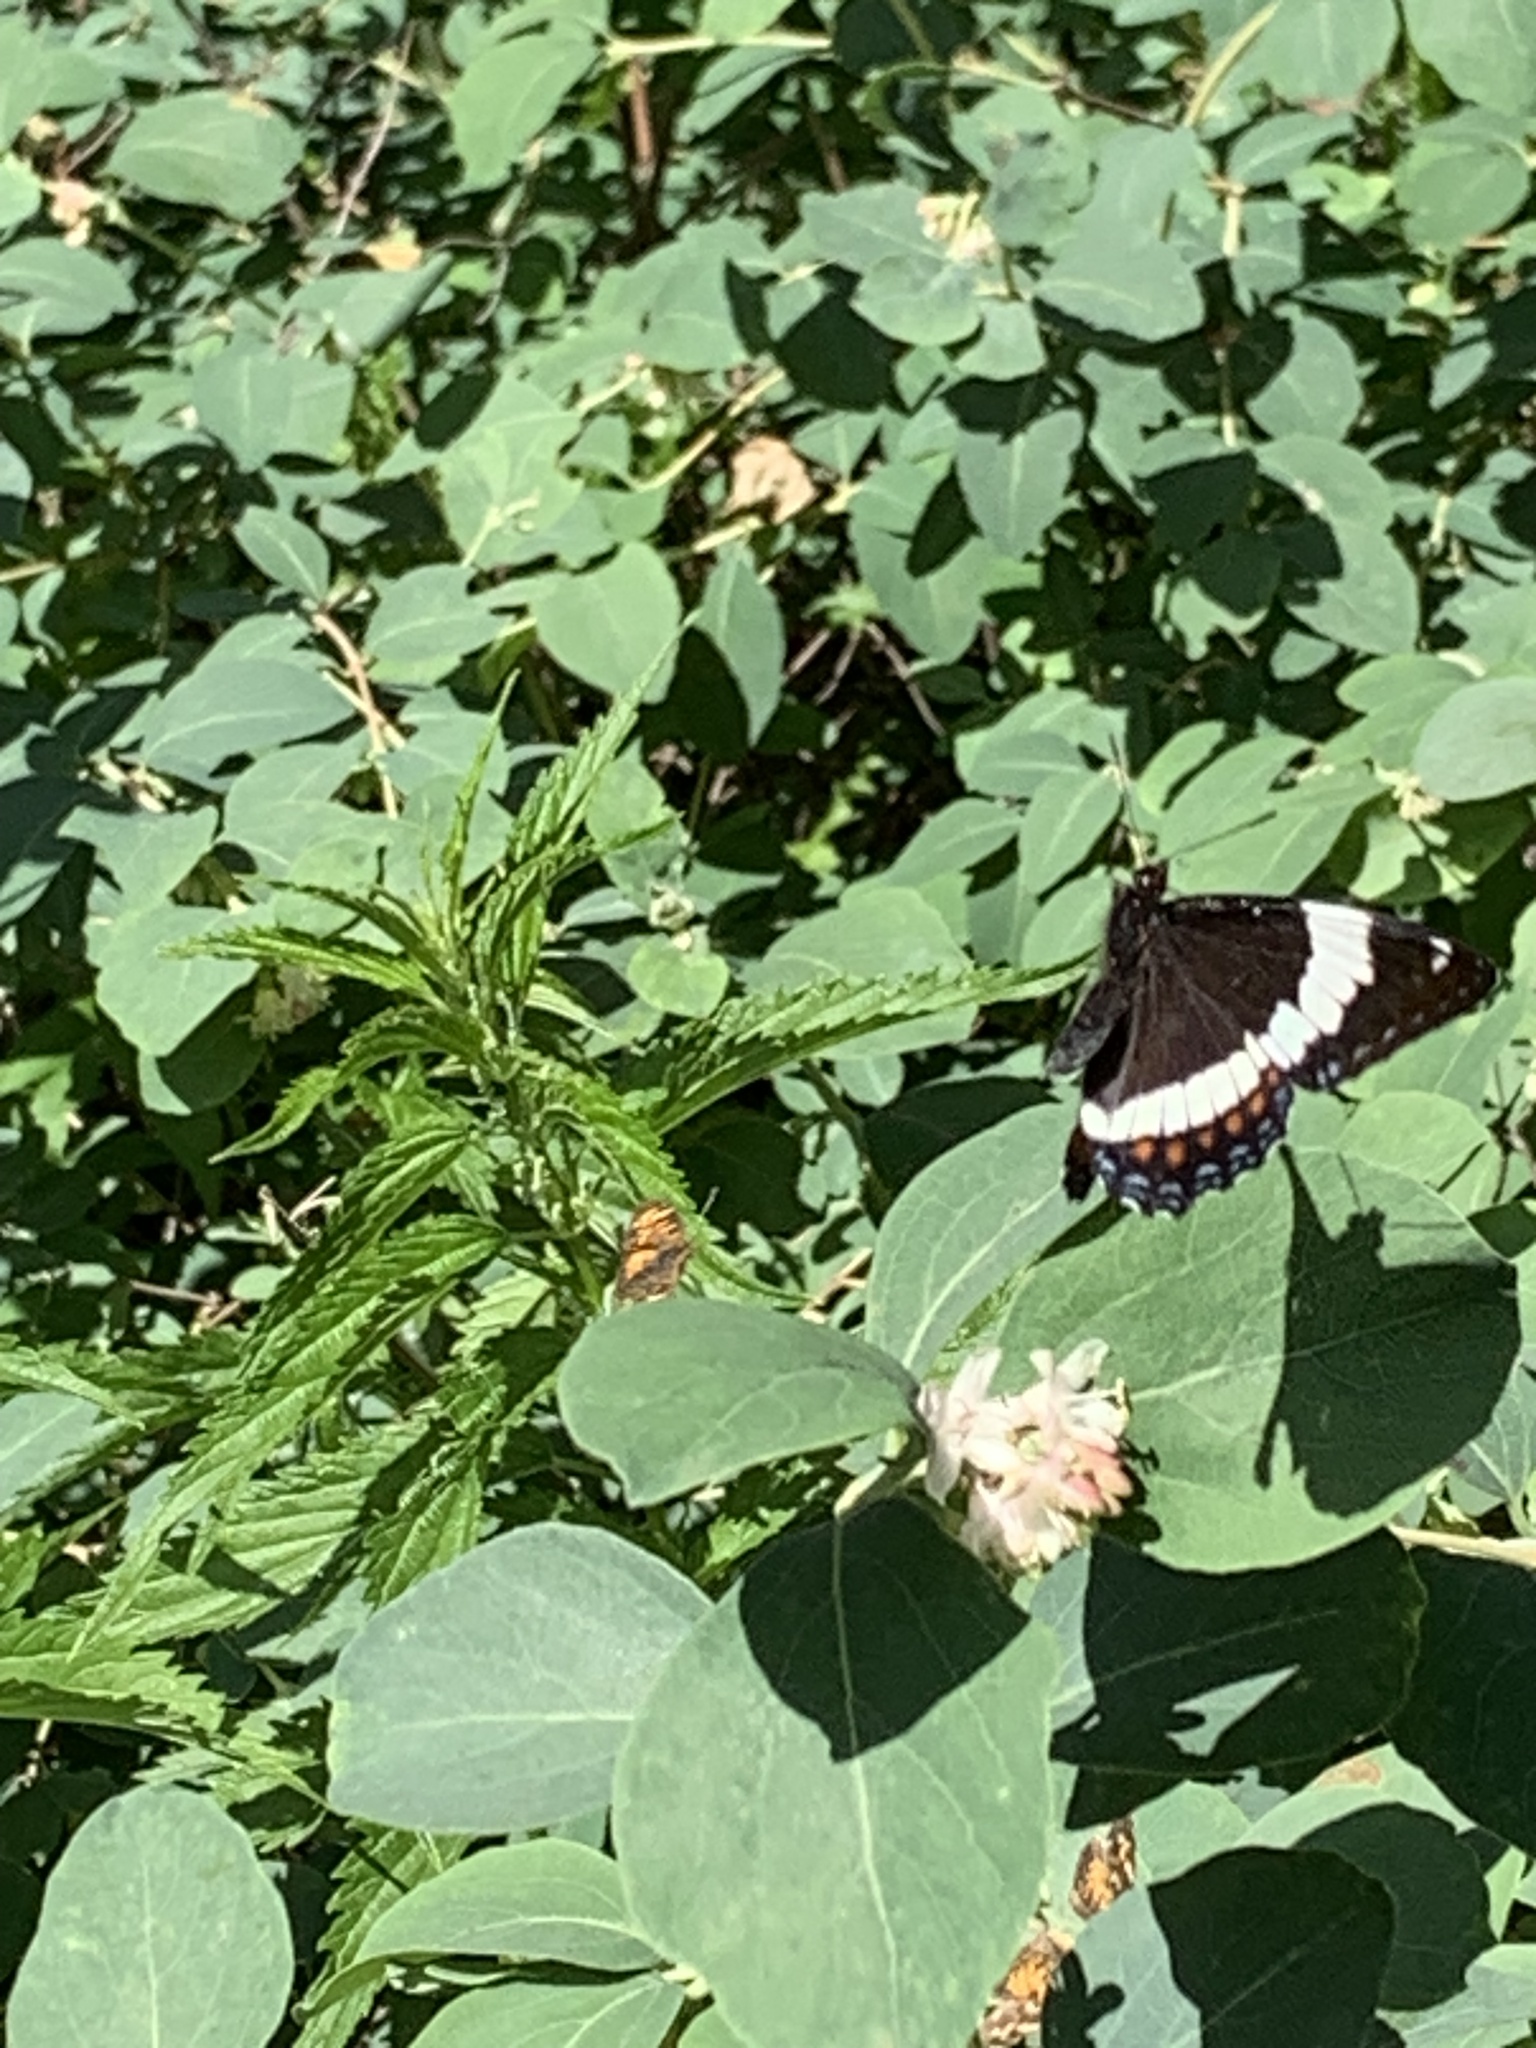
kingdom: Animalia
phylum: Arthropoda
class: Insecta
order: Lepidoptera
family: Nymphalidae
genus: Limenitis
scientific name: Limenitis arthemis
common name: Red-spotted admiral
